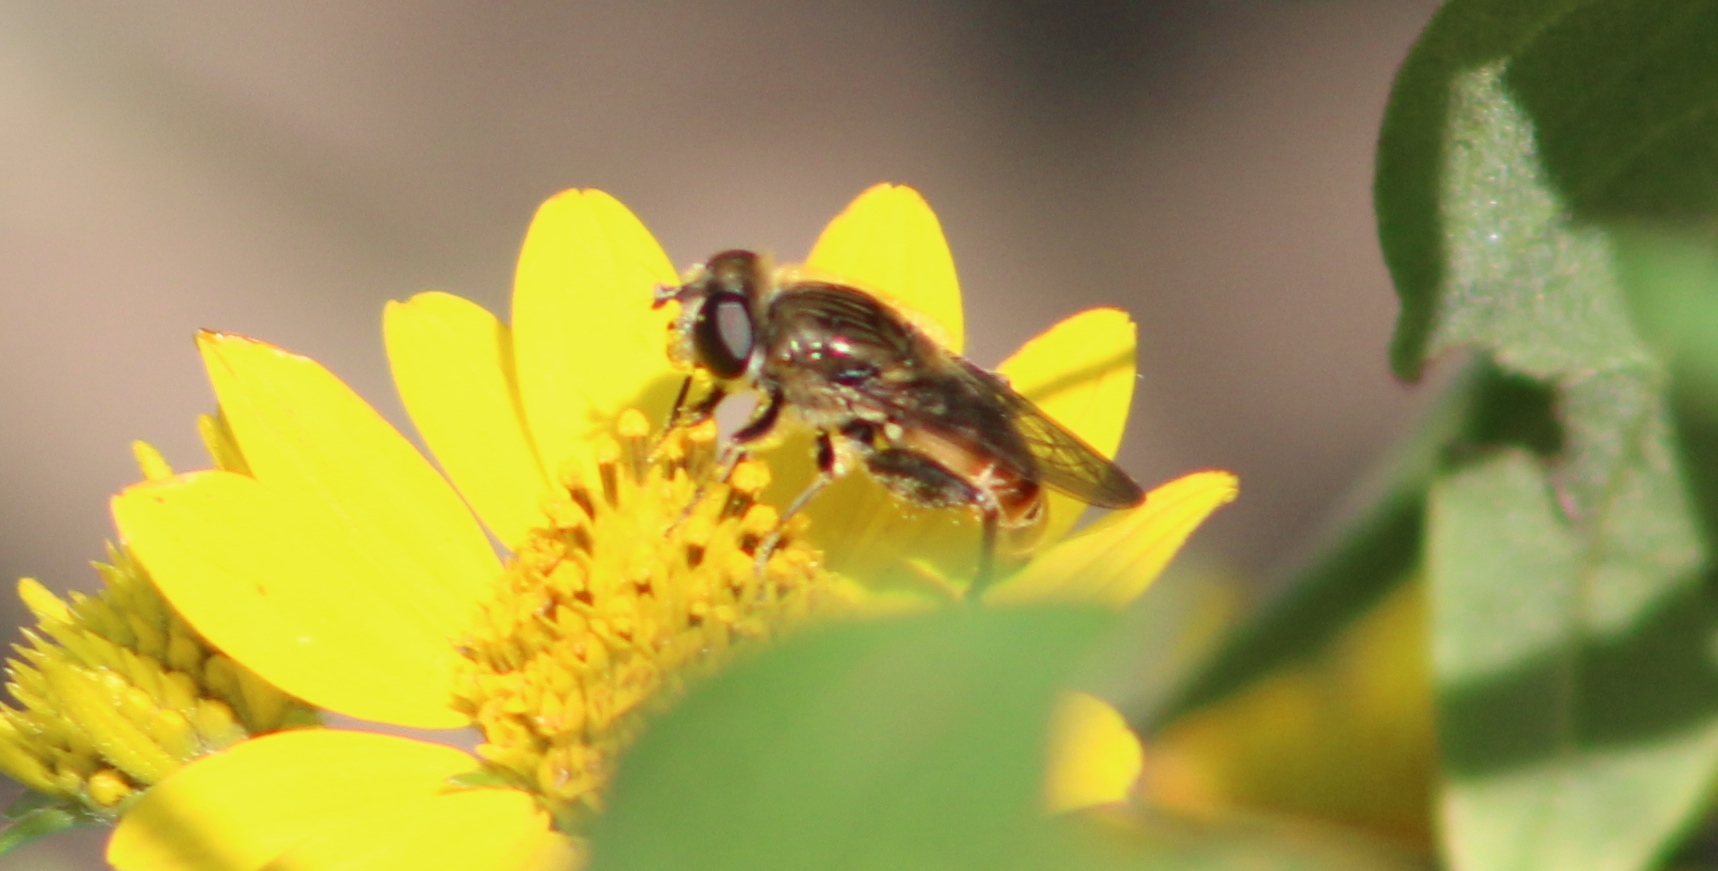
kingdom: Animalia
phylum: Arthropoda
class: Insecta
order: Diptera
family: Syrphidae
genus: Asemosyrphus
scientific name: Asemosyrphus polygrammus
